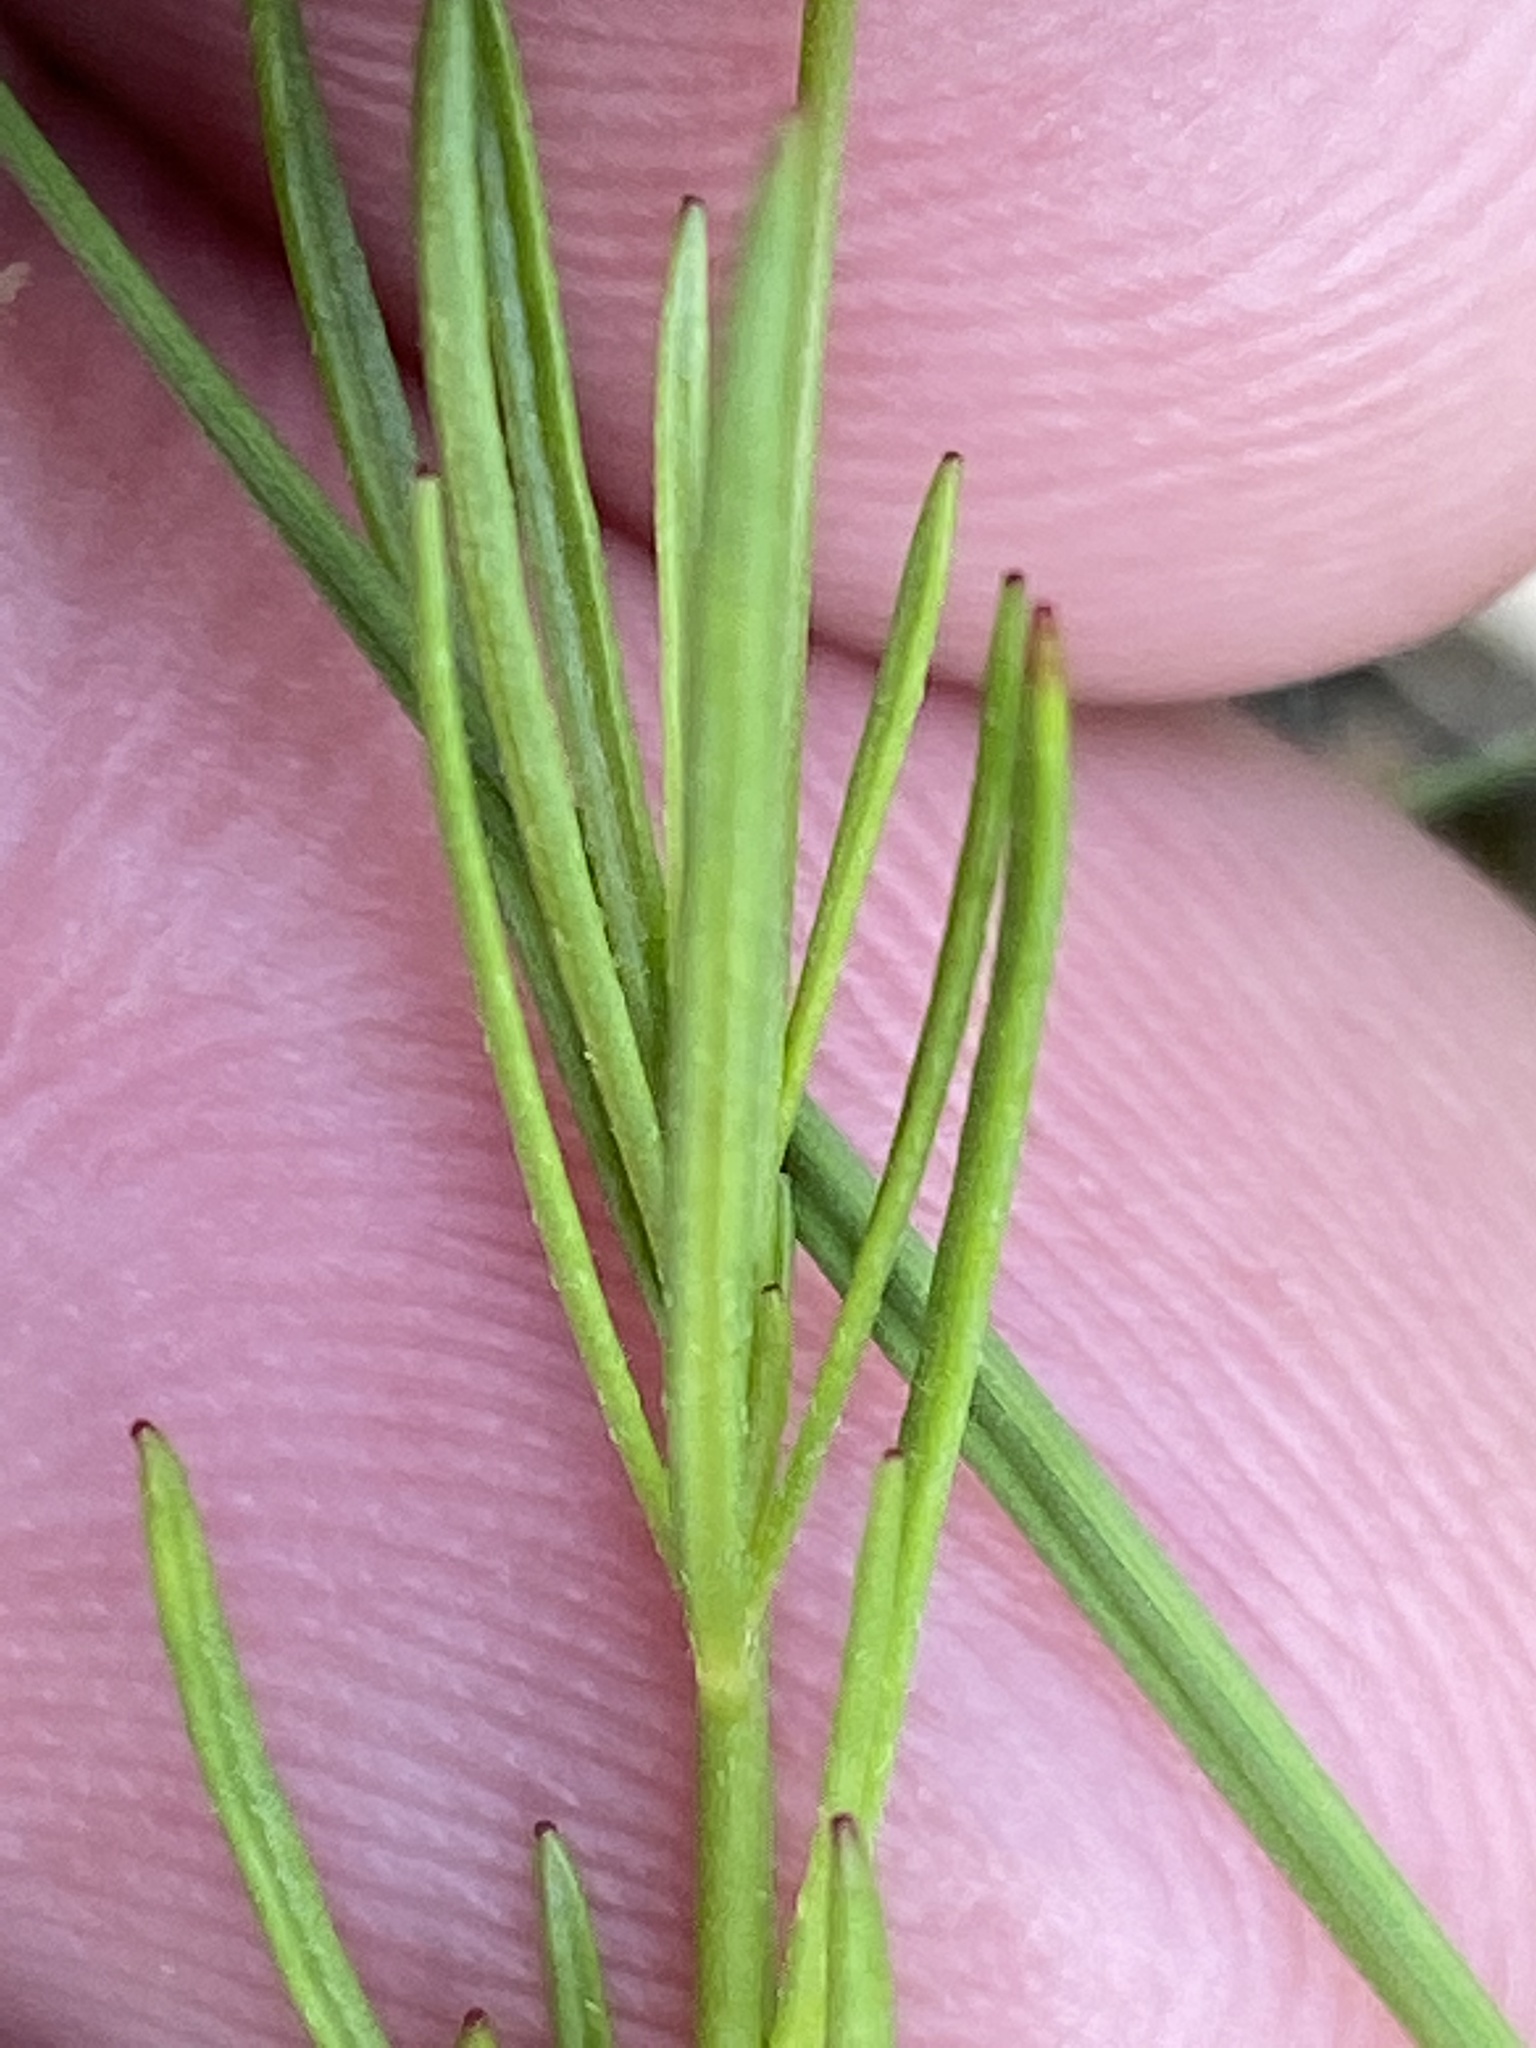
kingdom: Plantae
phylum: Tracheophyta
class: Magnoliopsida
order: Myrtales
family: Onagraceae
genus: Oenothera
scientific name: Oenothera linifolia
